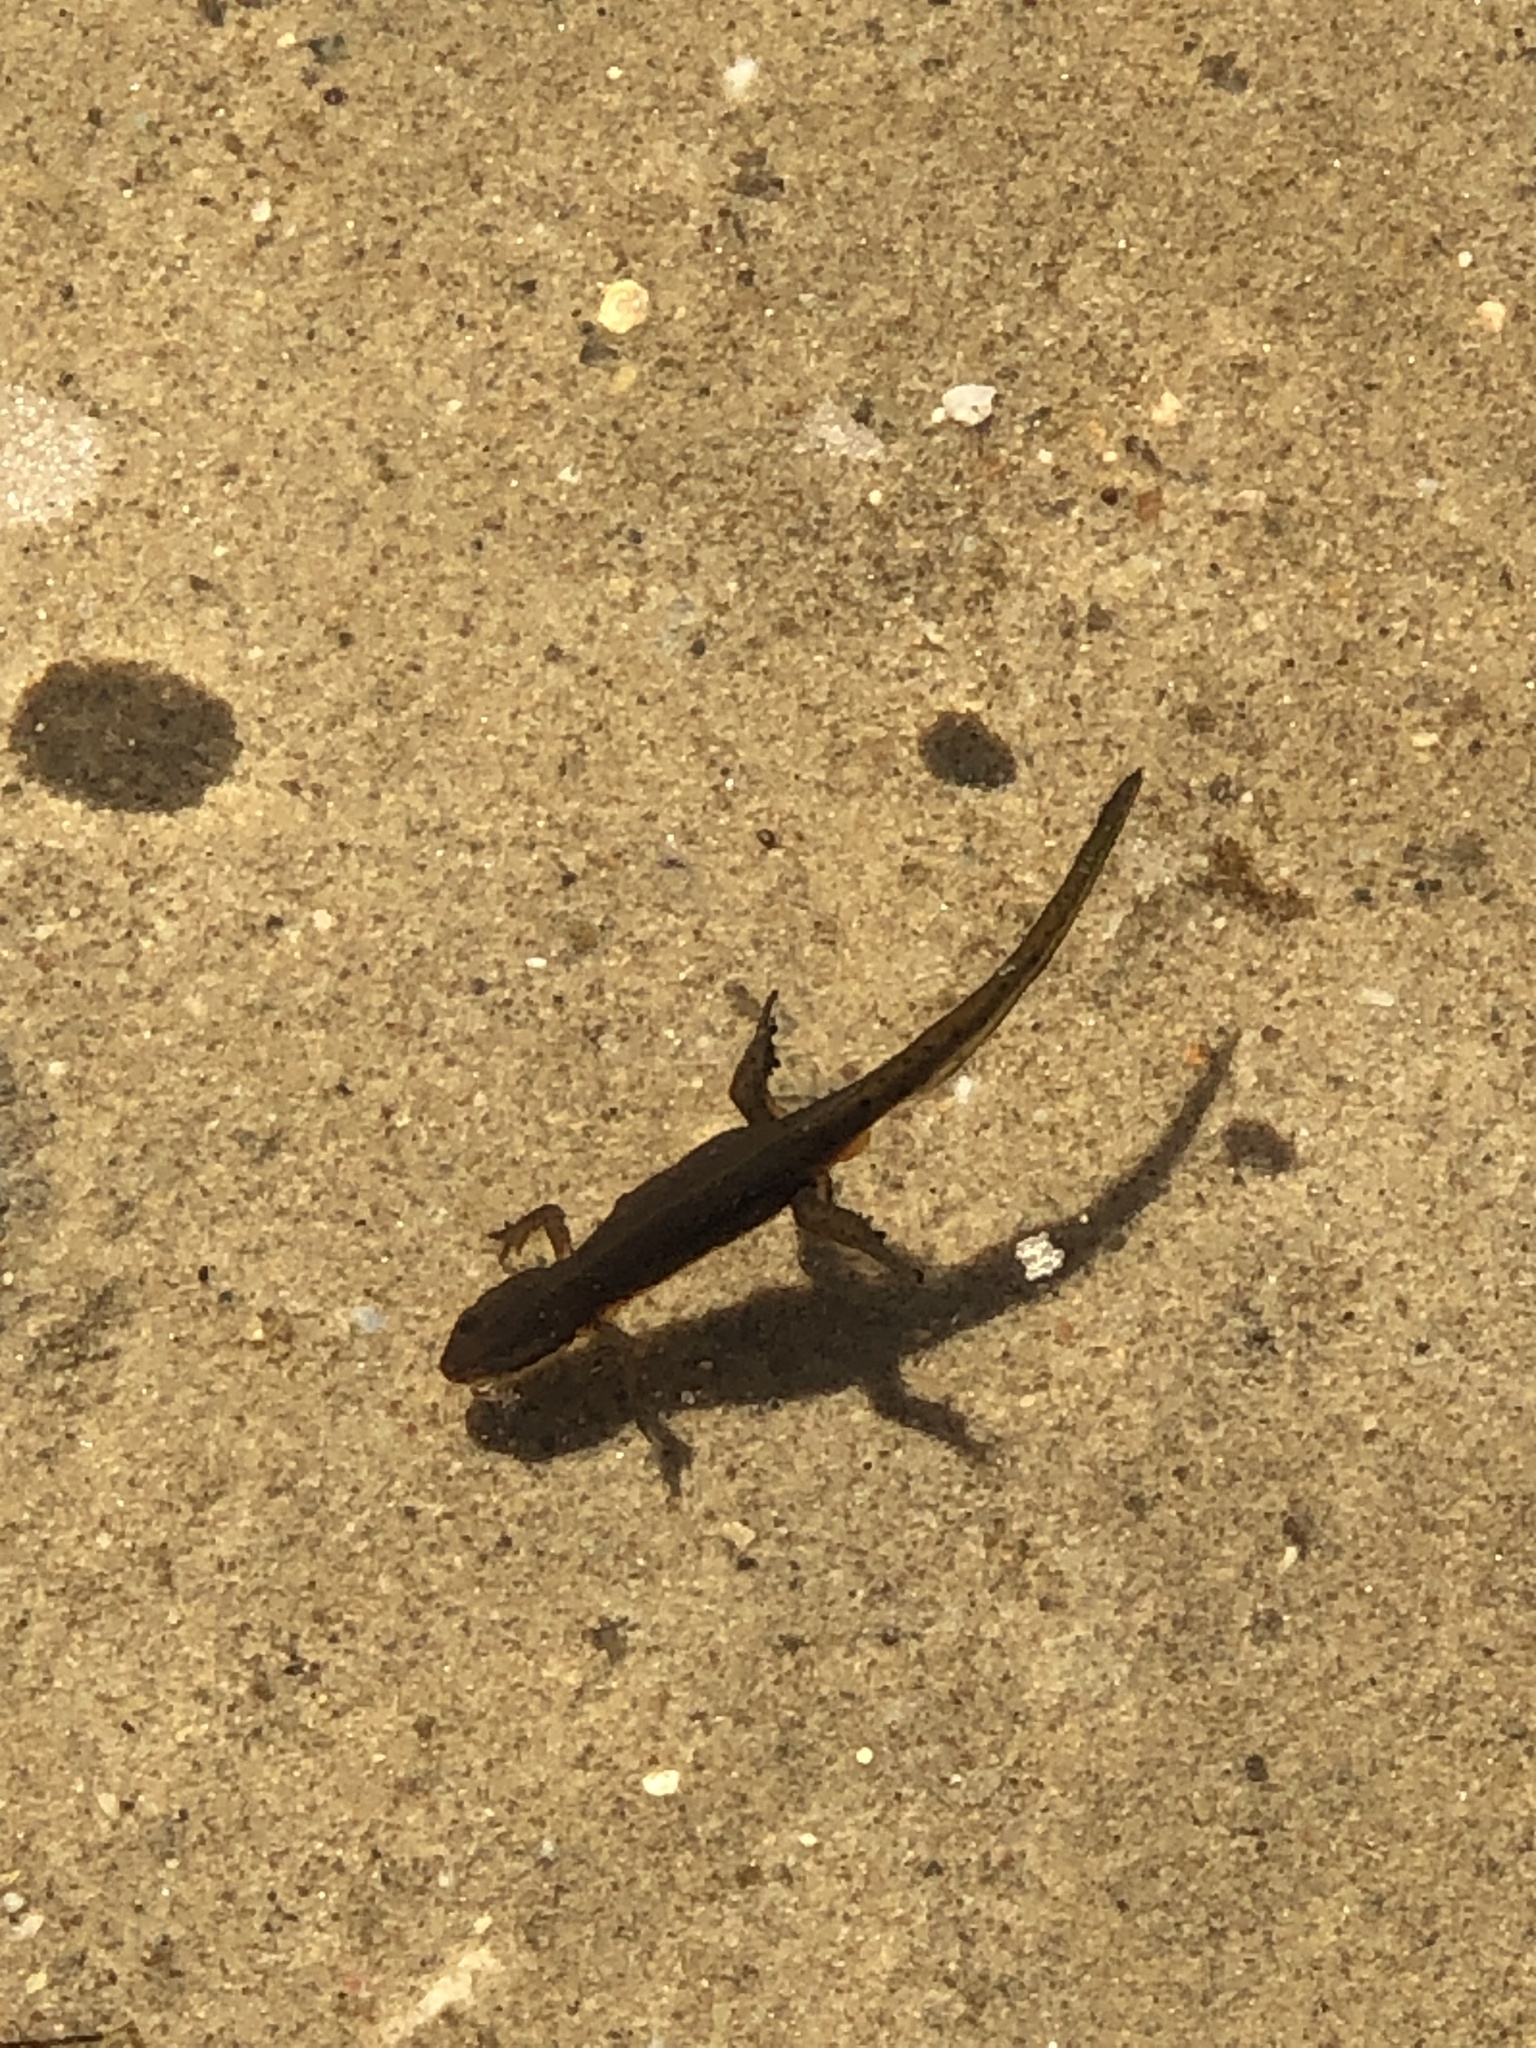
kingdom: Animalia
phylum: Chordata
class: Amphibia
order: Caudata
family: Salamandridae
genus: Notophthalmus
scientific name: Notophthalmus viridescens
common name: Eastern newt
